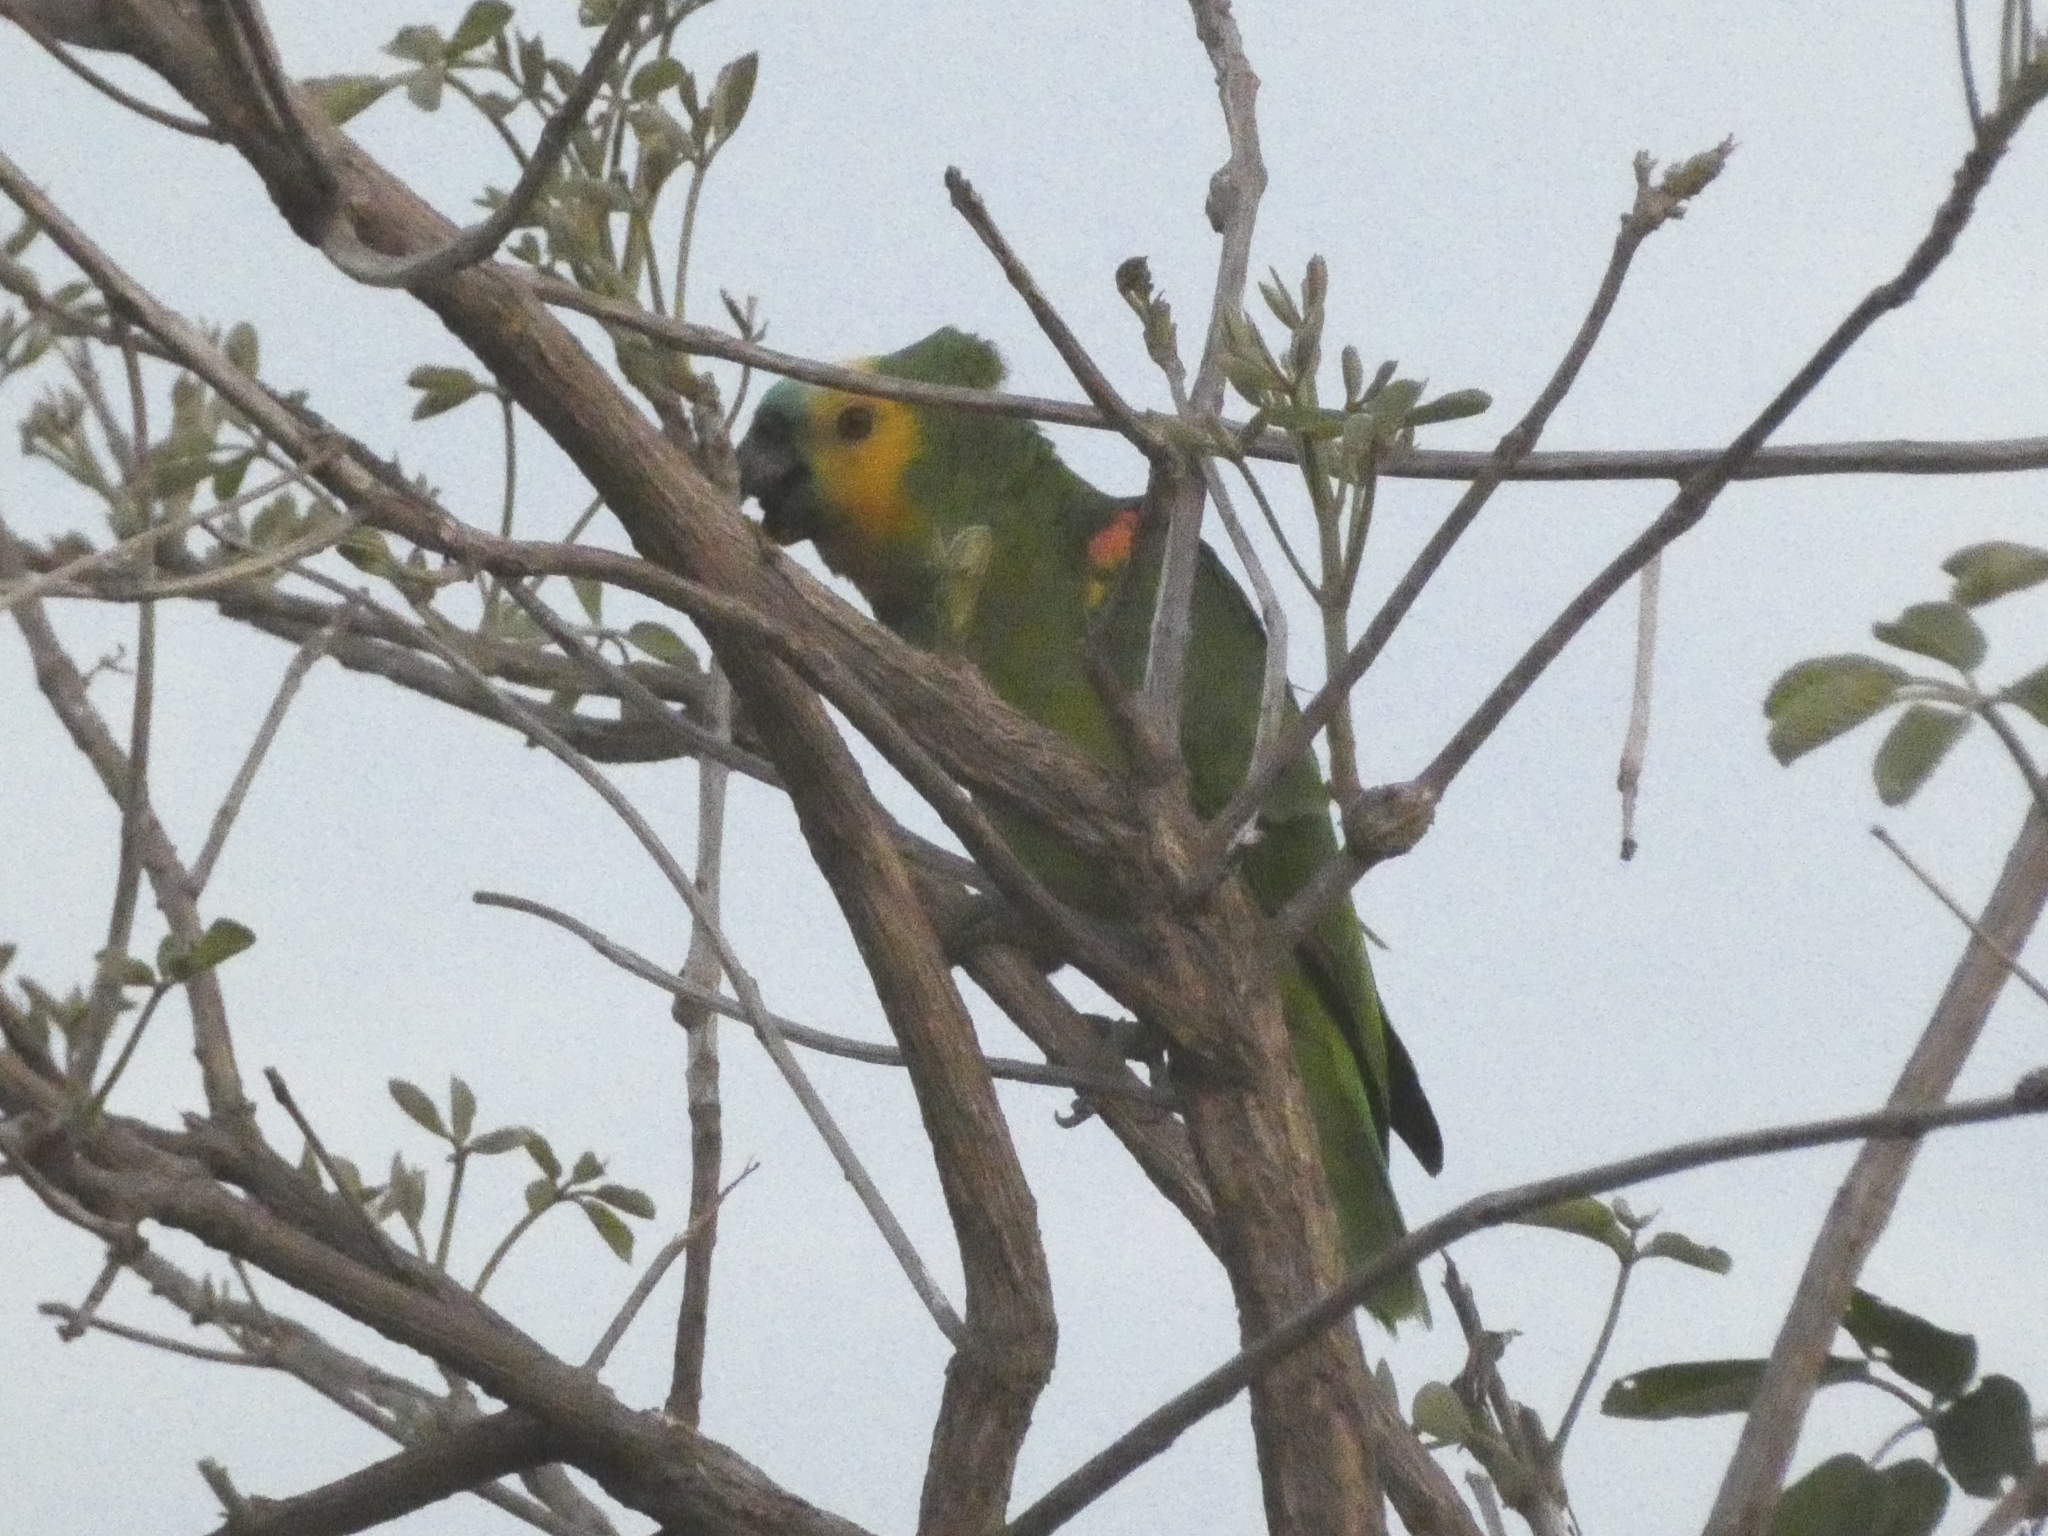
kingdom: Animalia
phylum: Chordata
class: Aves
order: Psittaciformes
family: Psittacidae
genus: Amazona
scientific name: Amazona aestiva
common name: Turquoise-fronted amazon
